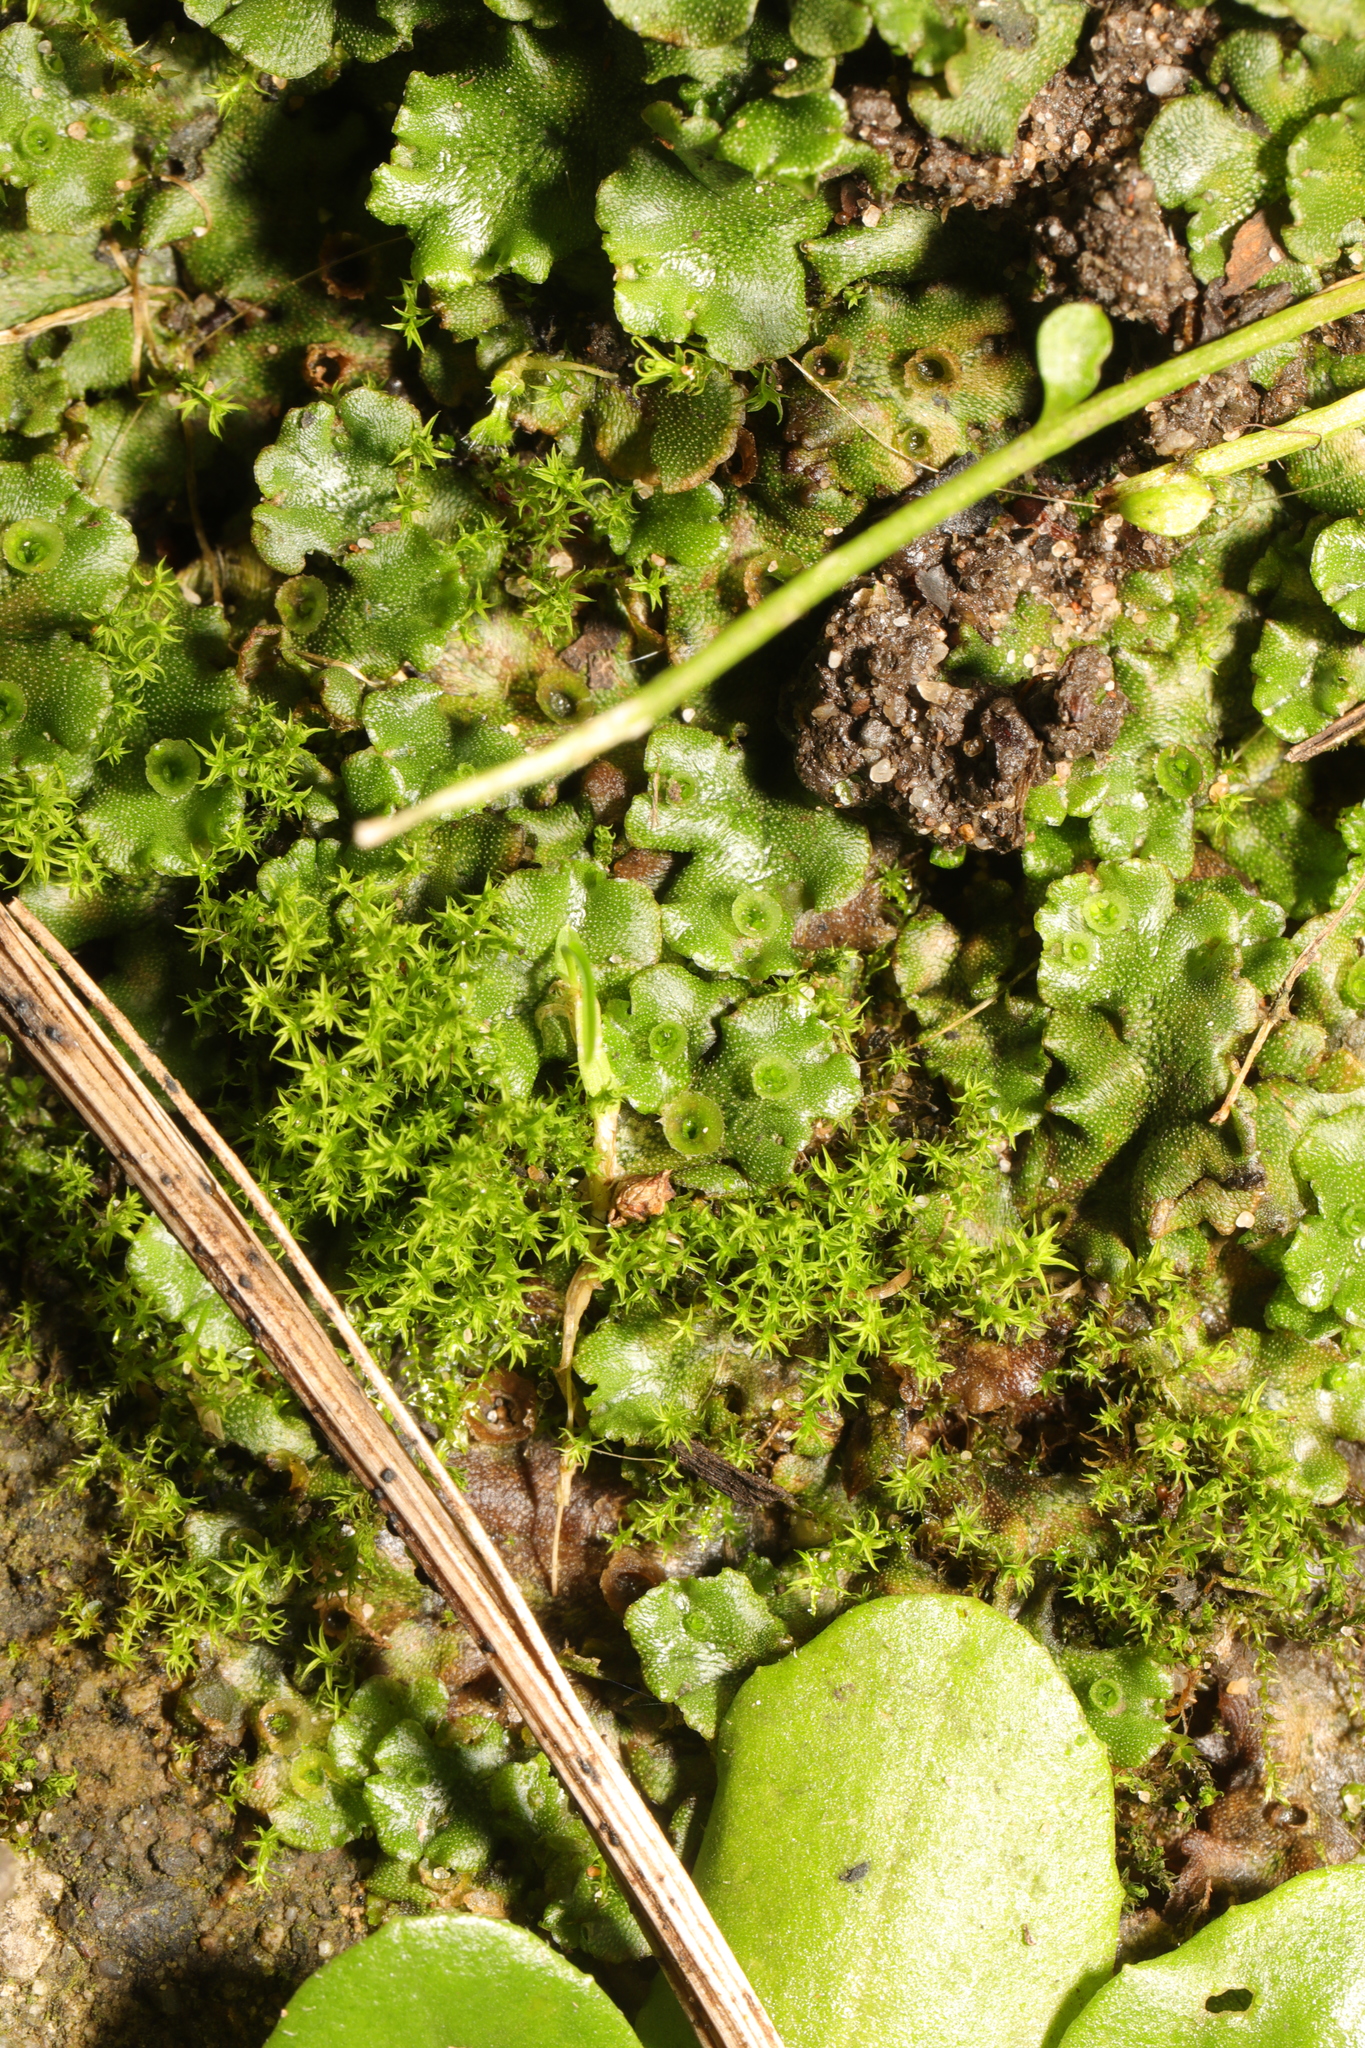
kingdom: Plantae
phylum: Marchantiophyta
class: Marchantiopsida
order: Marchantiales
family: Marchantiaceae
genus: Marchantia
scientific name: Marchantia polymorpha
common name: Common liverwort
